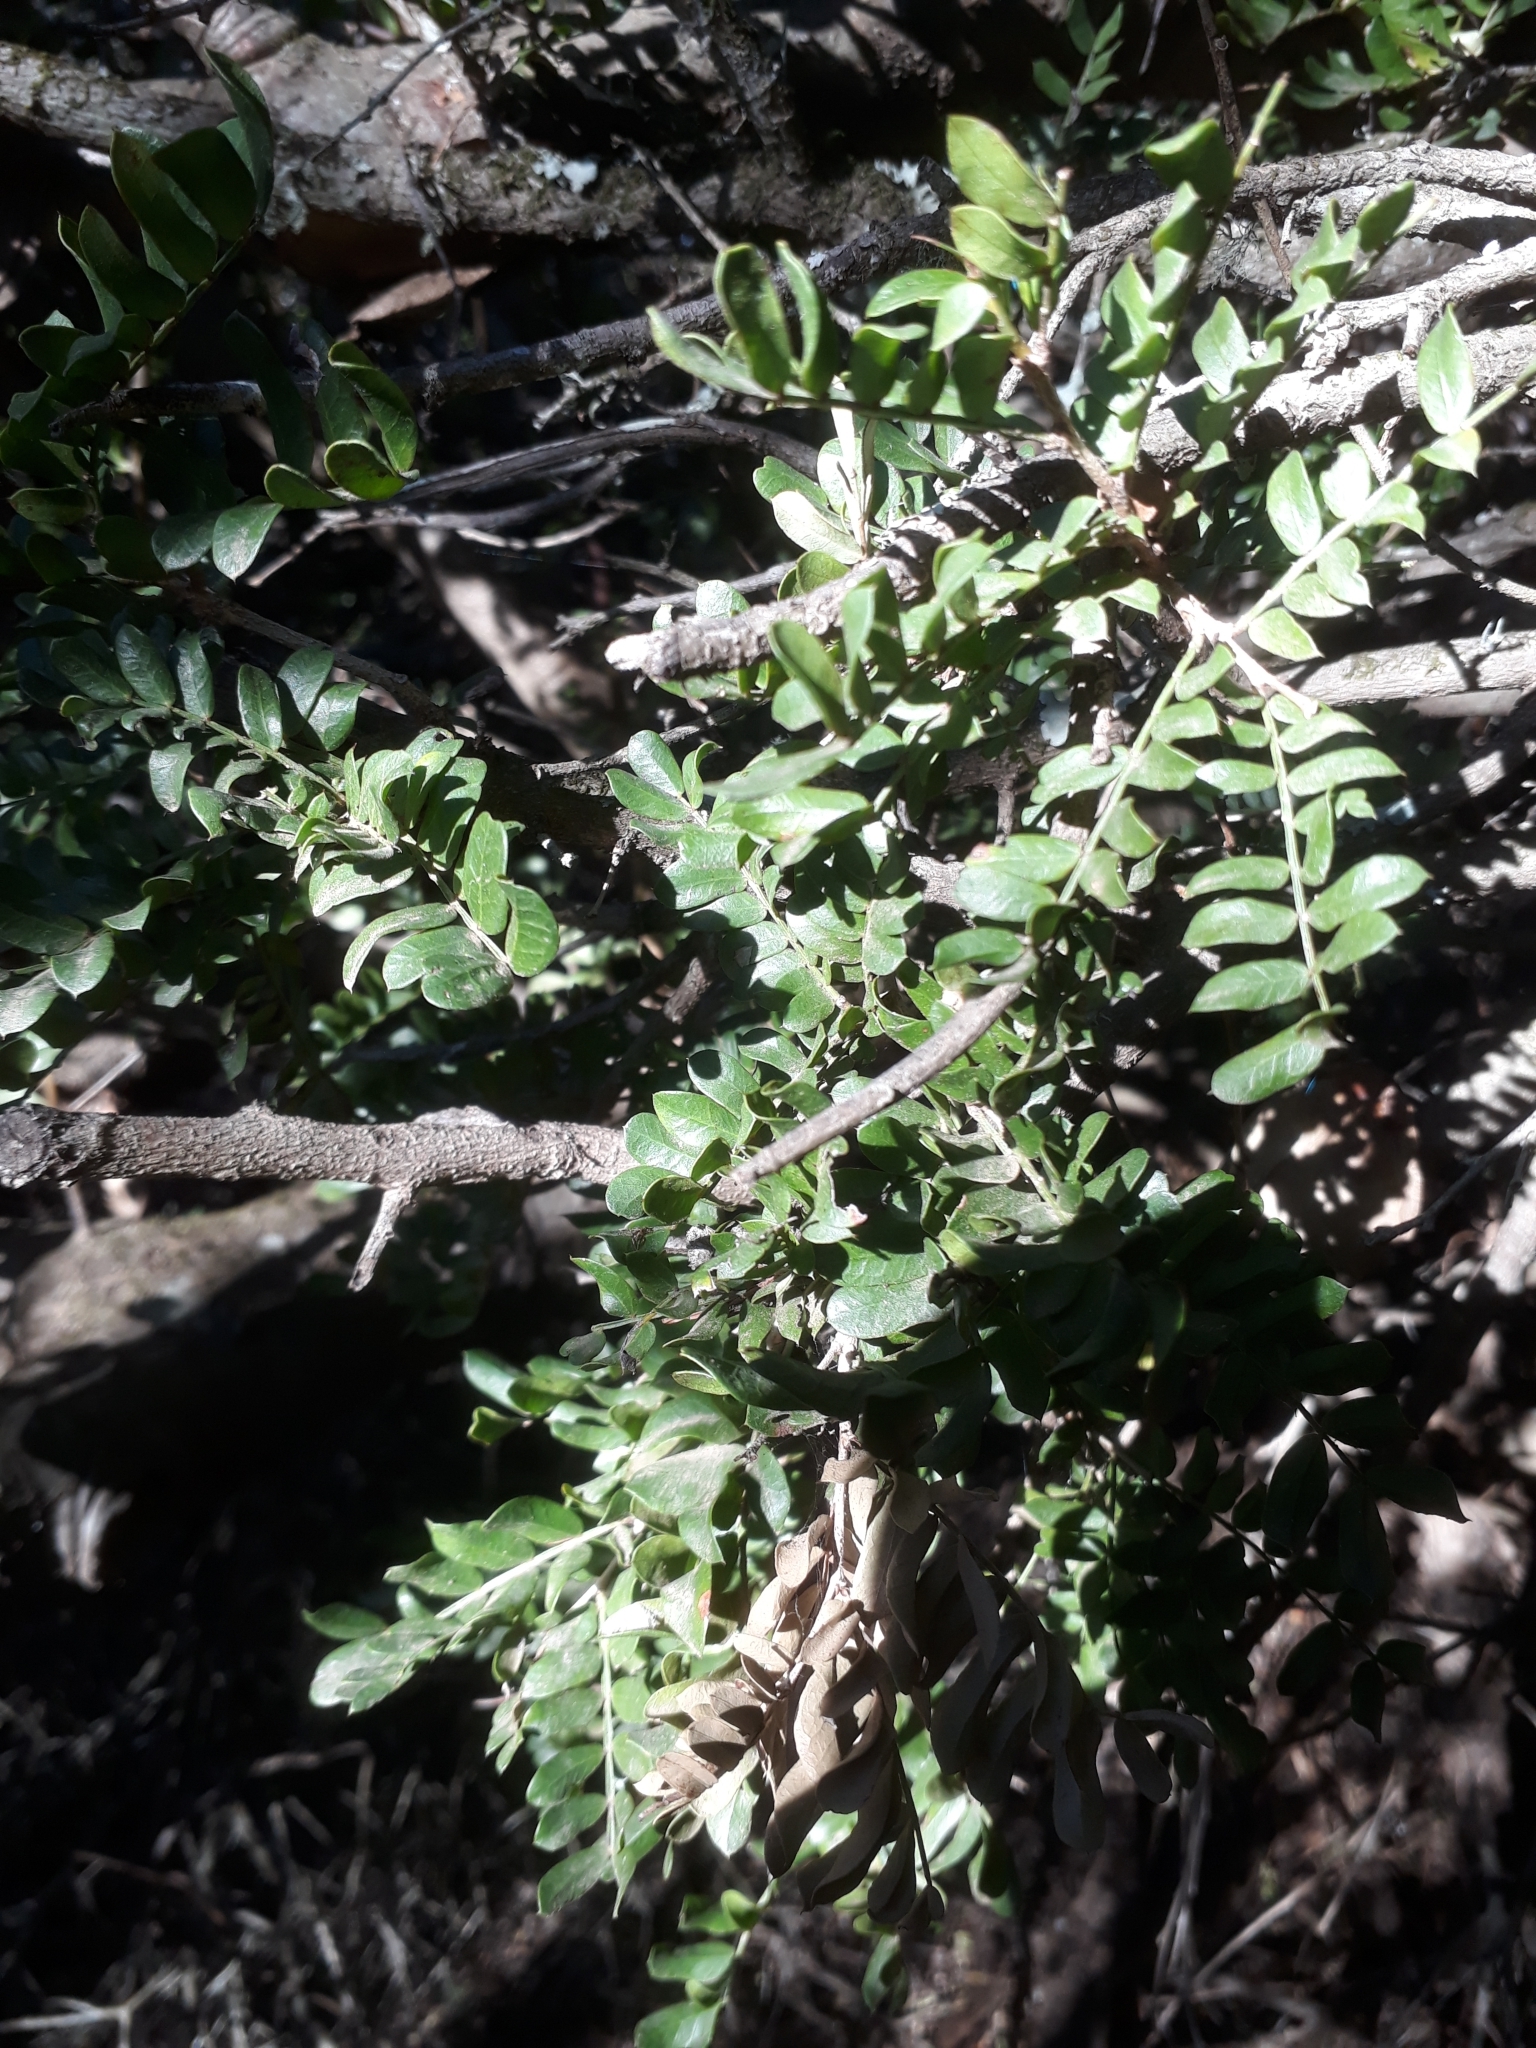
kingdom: Plantae
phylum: Tracheophyta
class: Magnoliopsida
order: Fabales
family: Fabaceae
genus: Schotia
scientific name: Schotia afra
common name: Hottentot's bean
